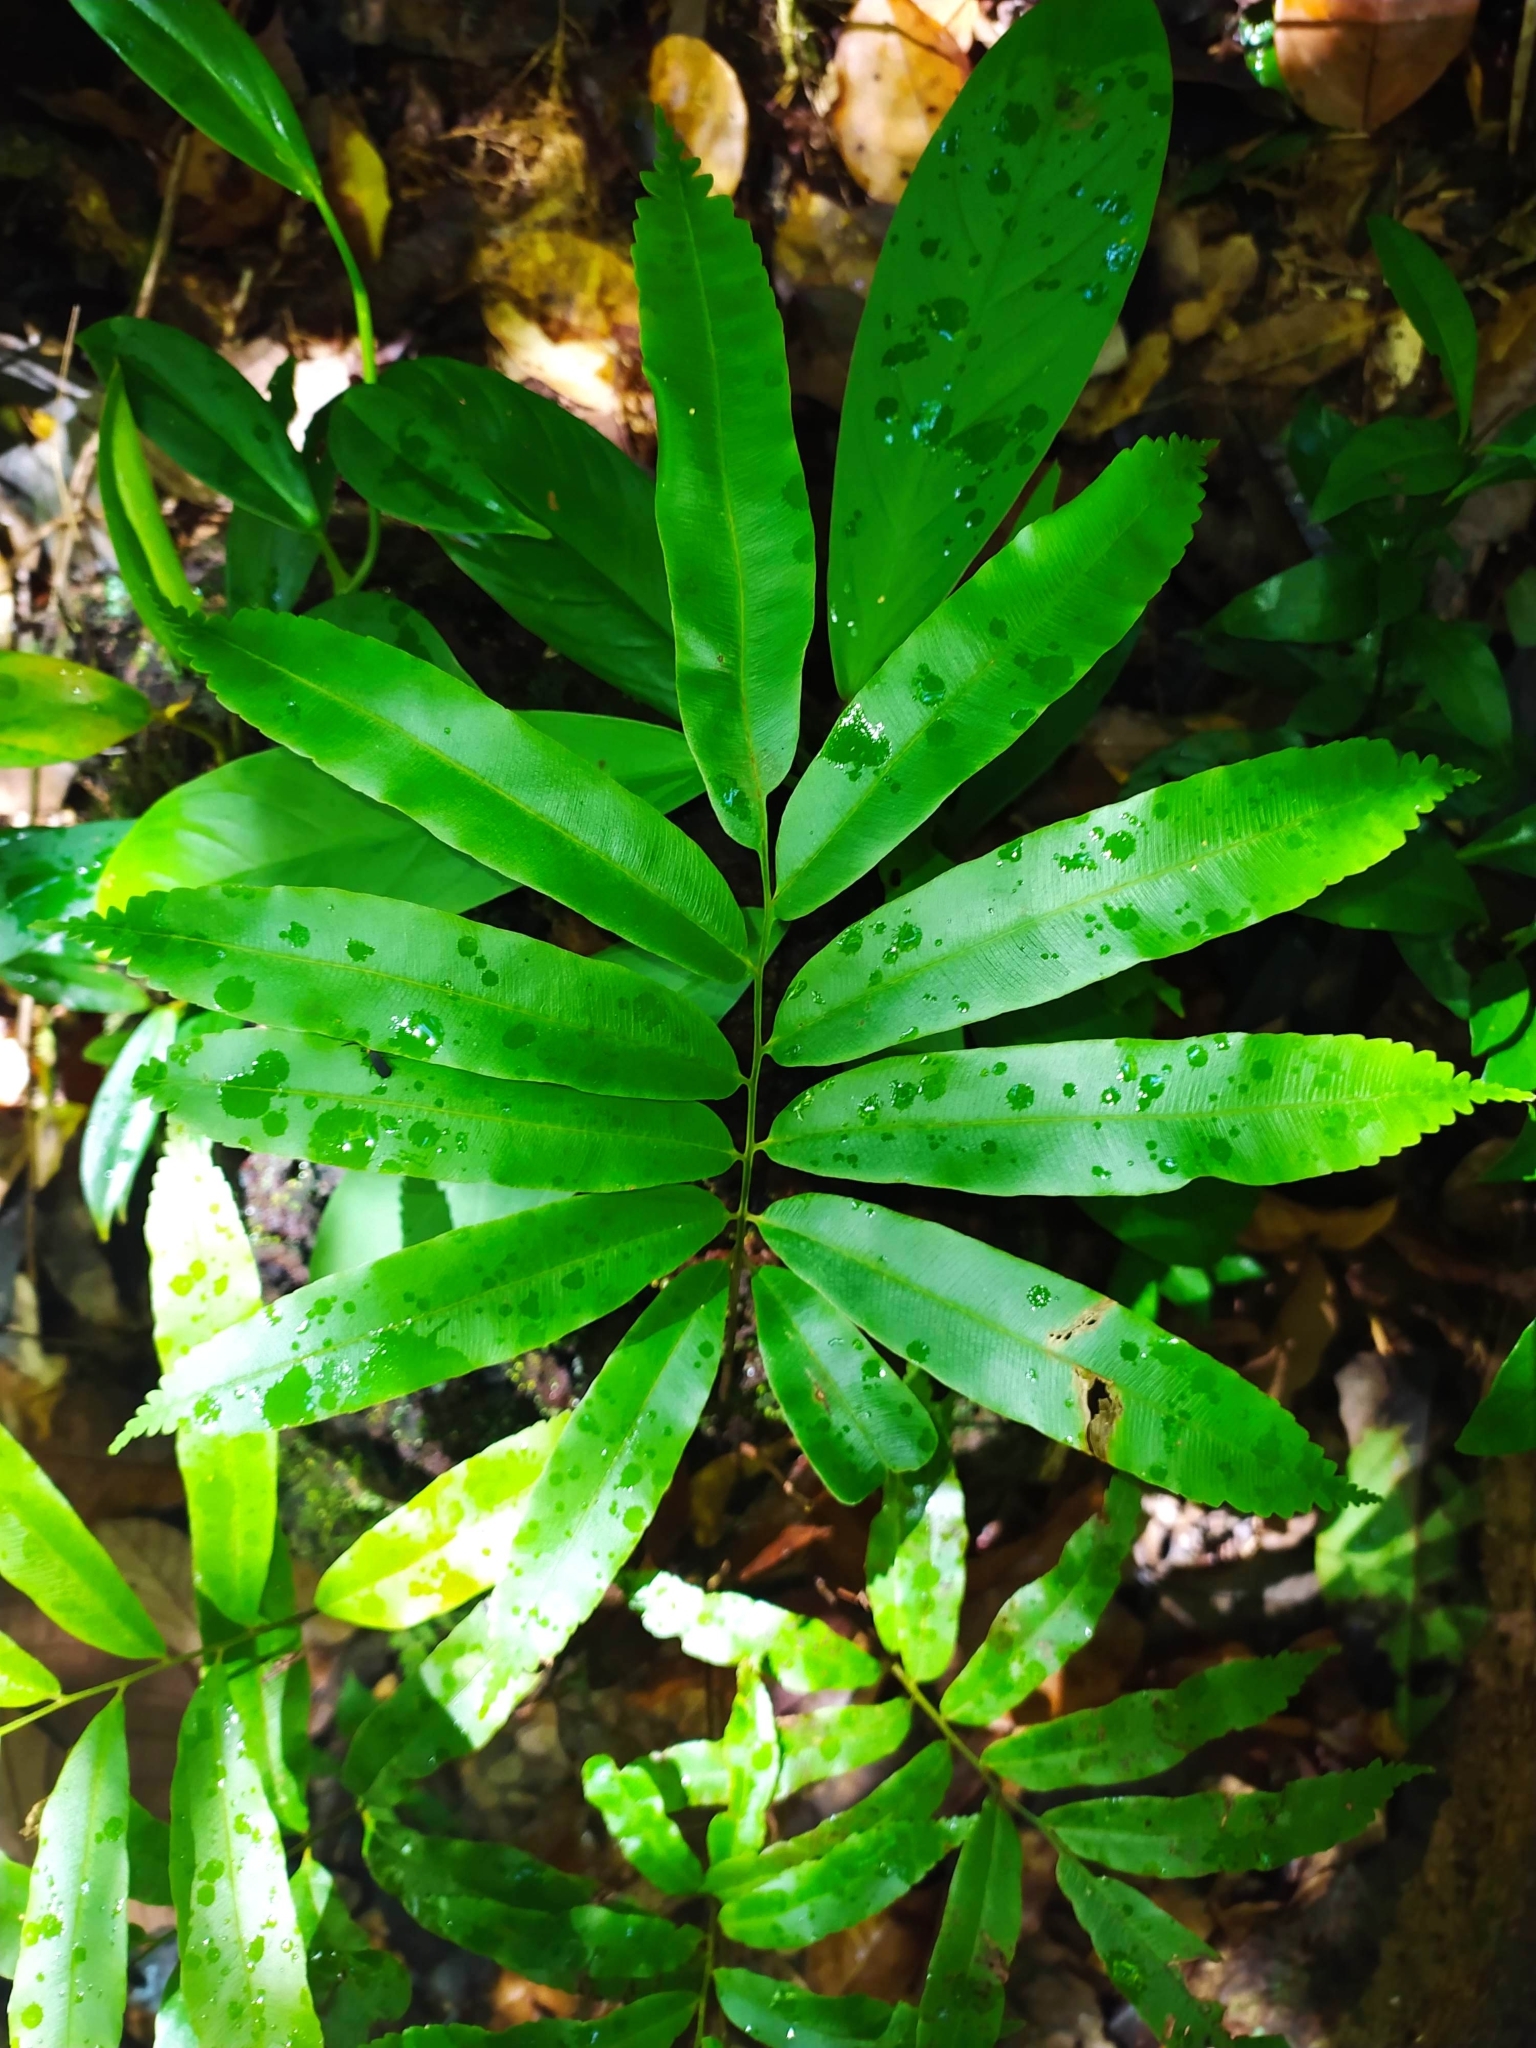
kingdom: Plantae
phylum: Tracheophyta
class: Polypodiopsida
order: Cyatheales
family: Metaxyaceae
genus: Metaxya
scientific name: Metaxya scalaris
